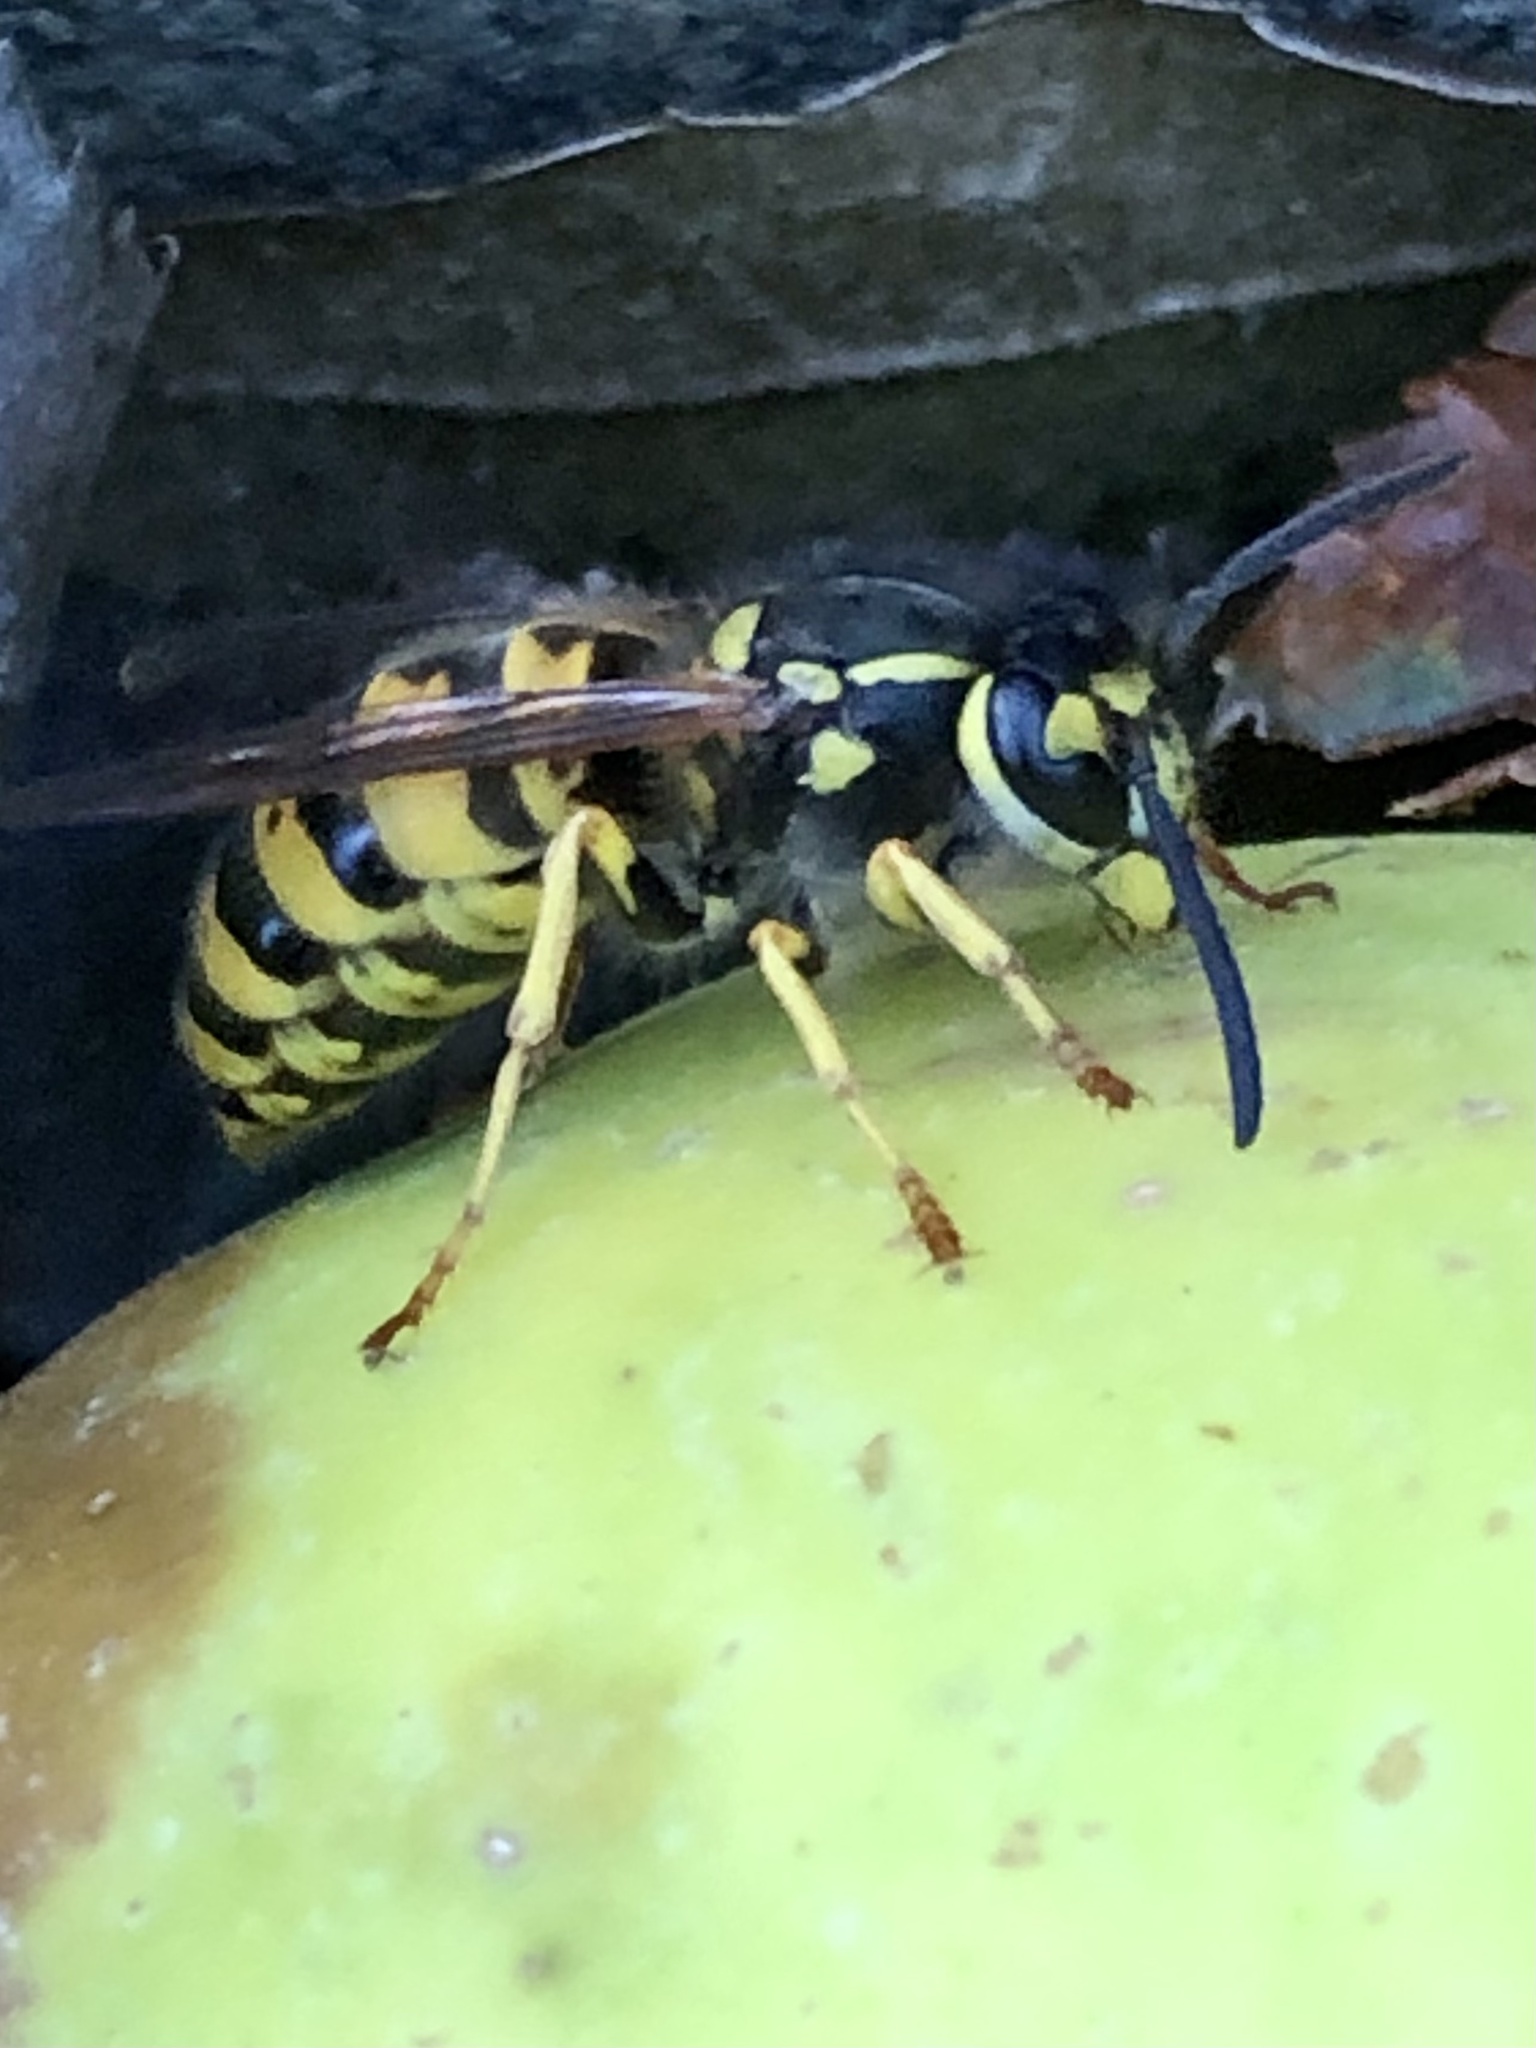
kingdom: Animalia
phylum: Arthropoda
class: Insecta
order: Hymenoptera
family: Vespidae
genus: Vespula
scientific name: Vespula germanica
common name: German wasp
